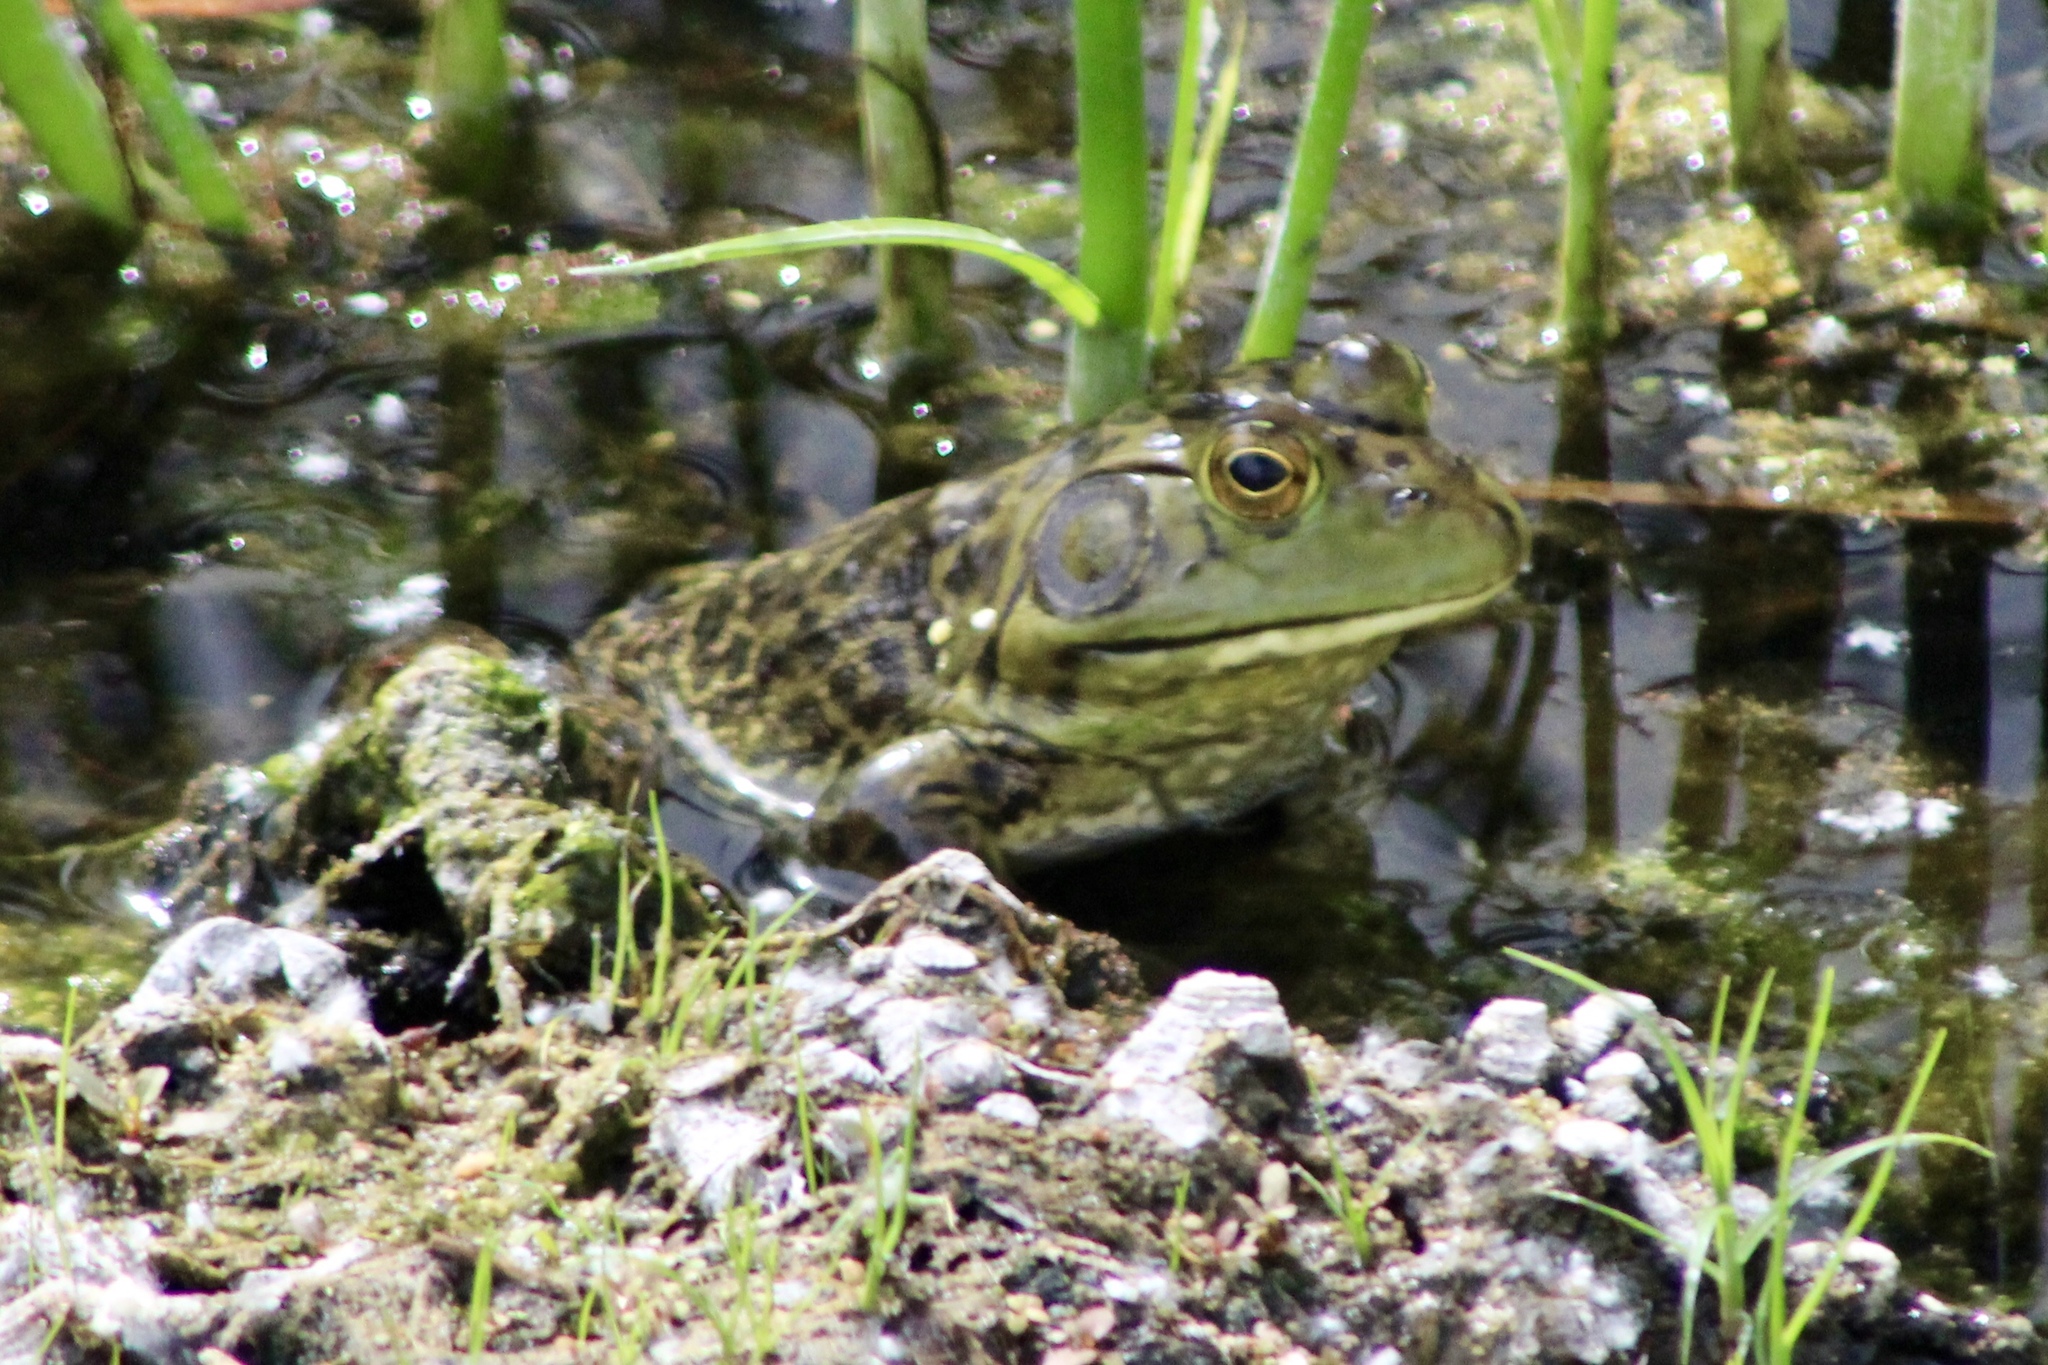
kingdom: Animalia
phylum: Chordata
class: Amphibia
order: Anura
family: Ranidae
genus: Lithobates
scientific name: Lithobates catesbeianus
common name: American bullfrog
